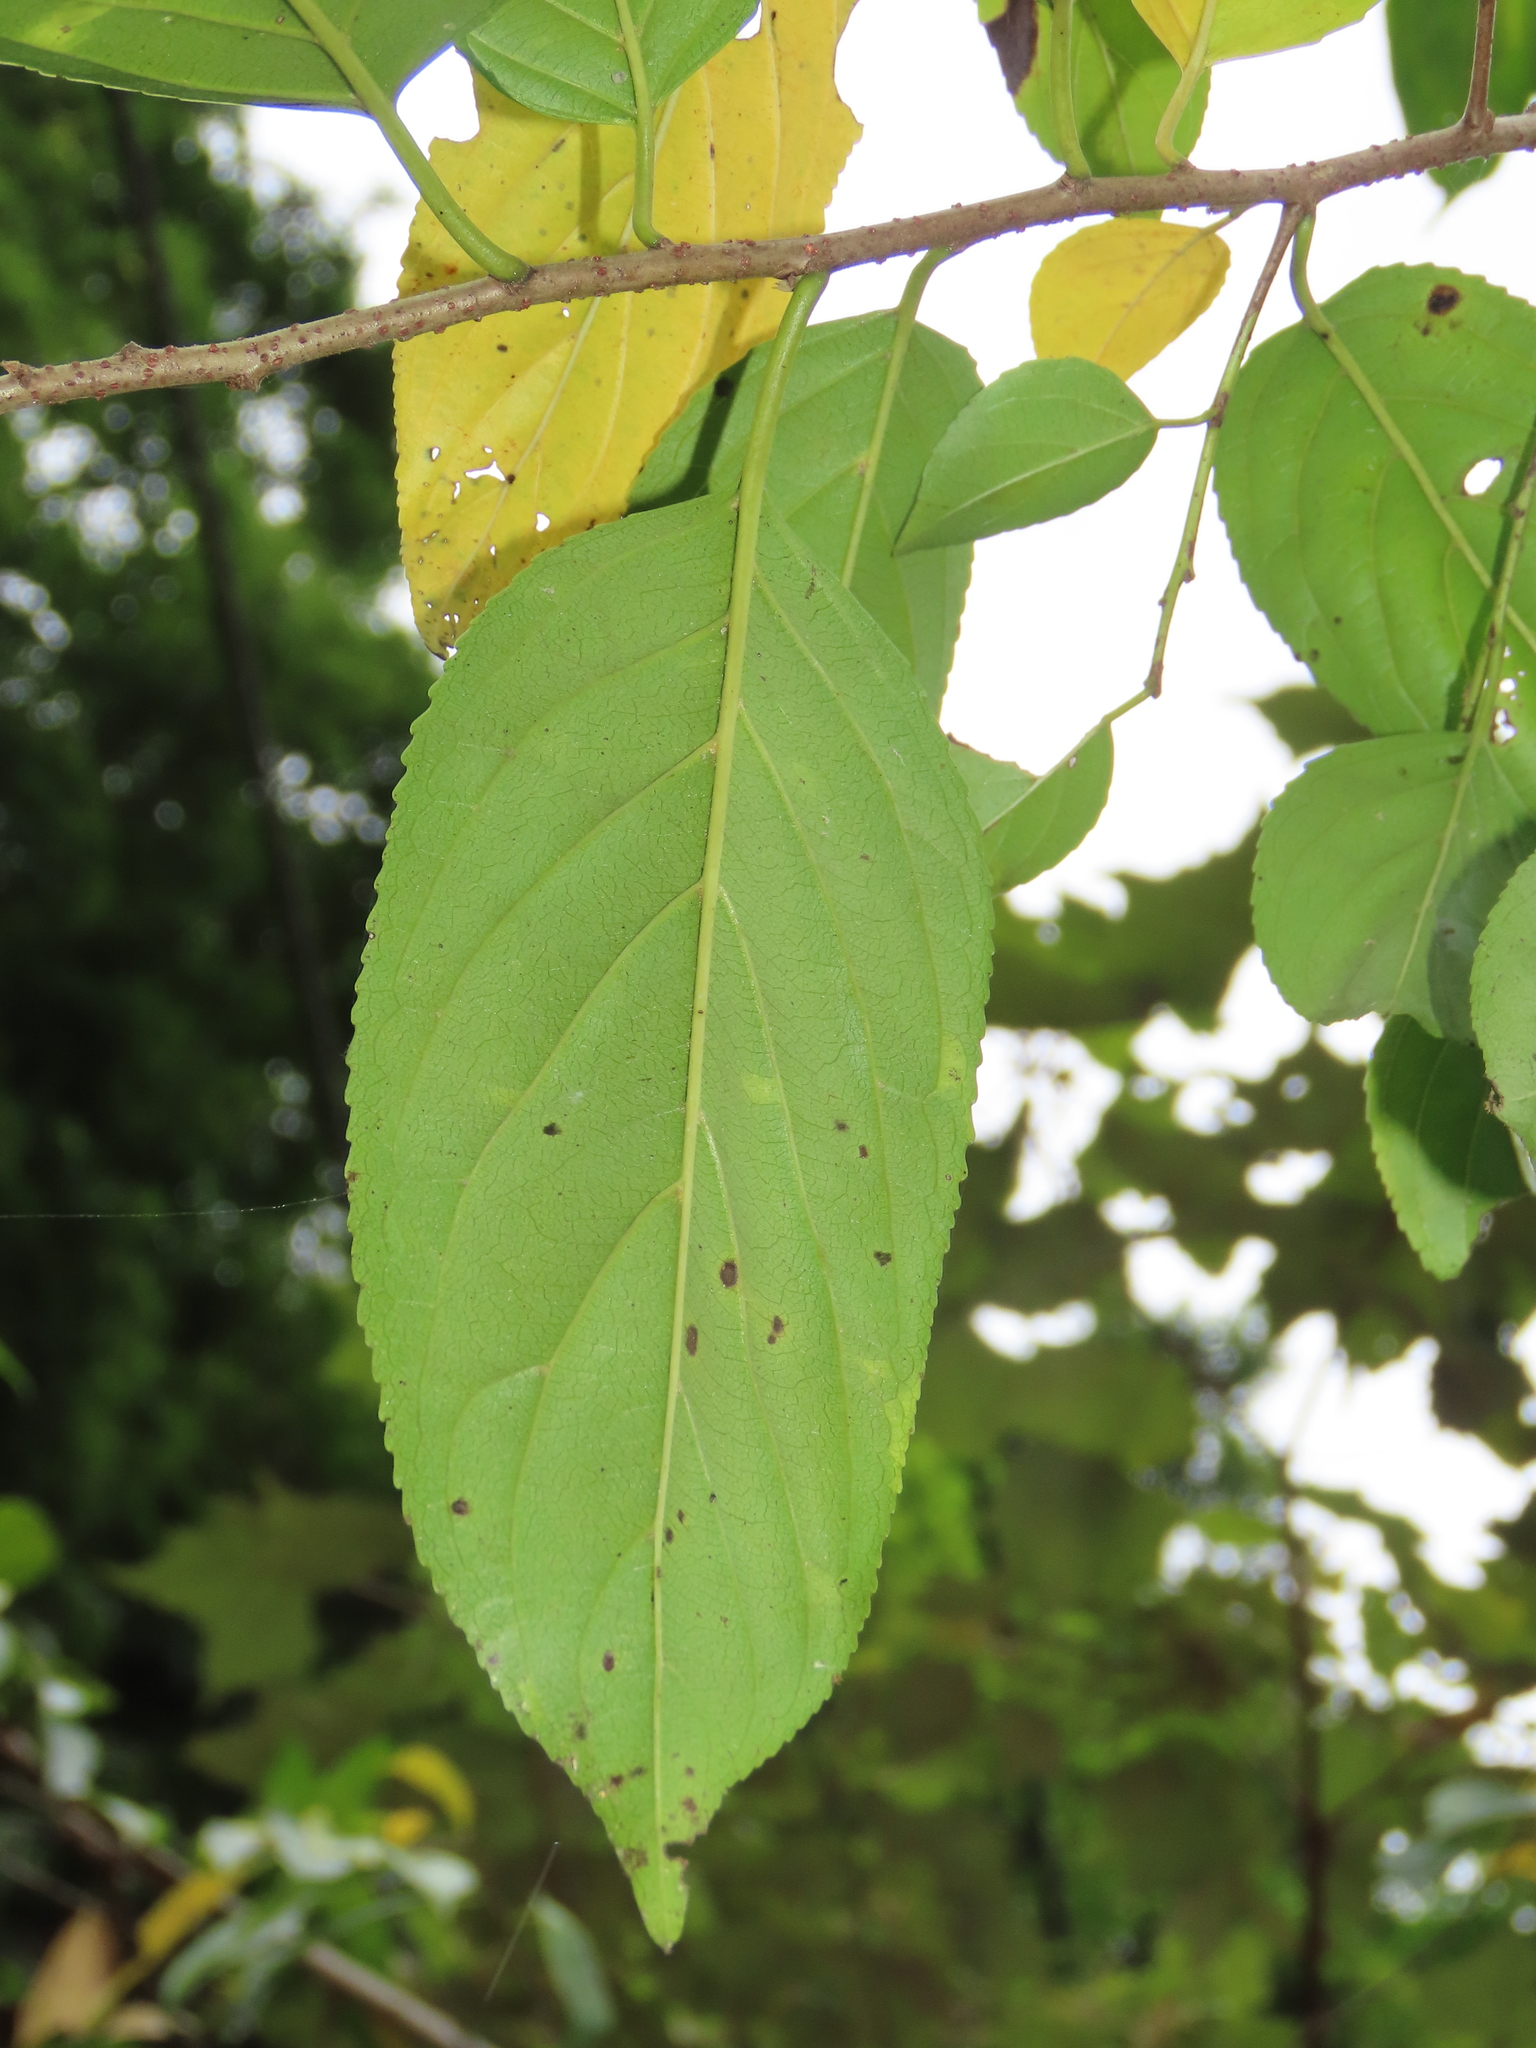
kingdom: Plantae
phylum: Tracheophyta
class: Magnoliopsida
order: Rosales
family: Rhamnaceae
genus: Rhamnus
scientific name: Rhamnus formosana
